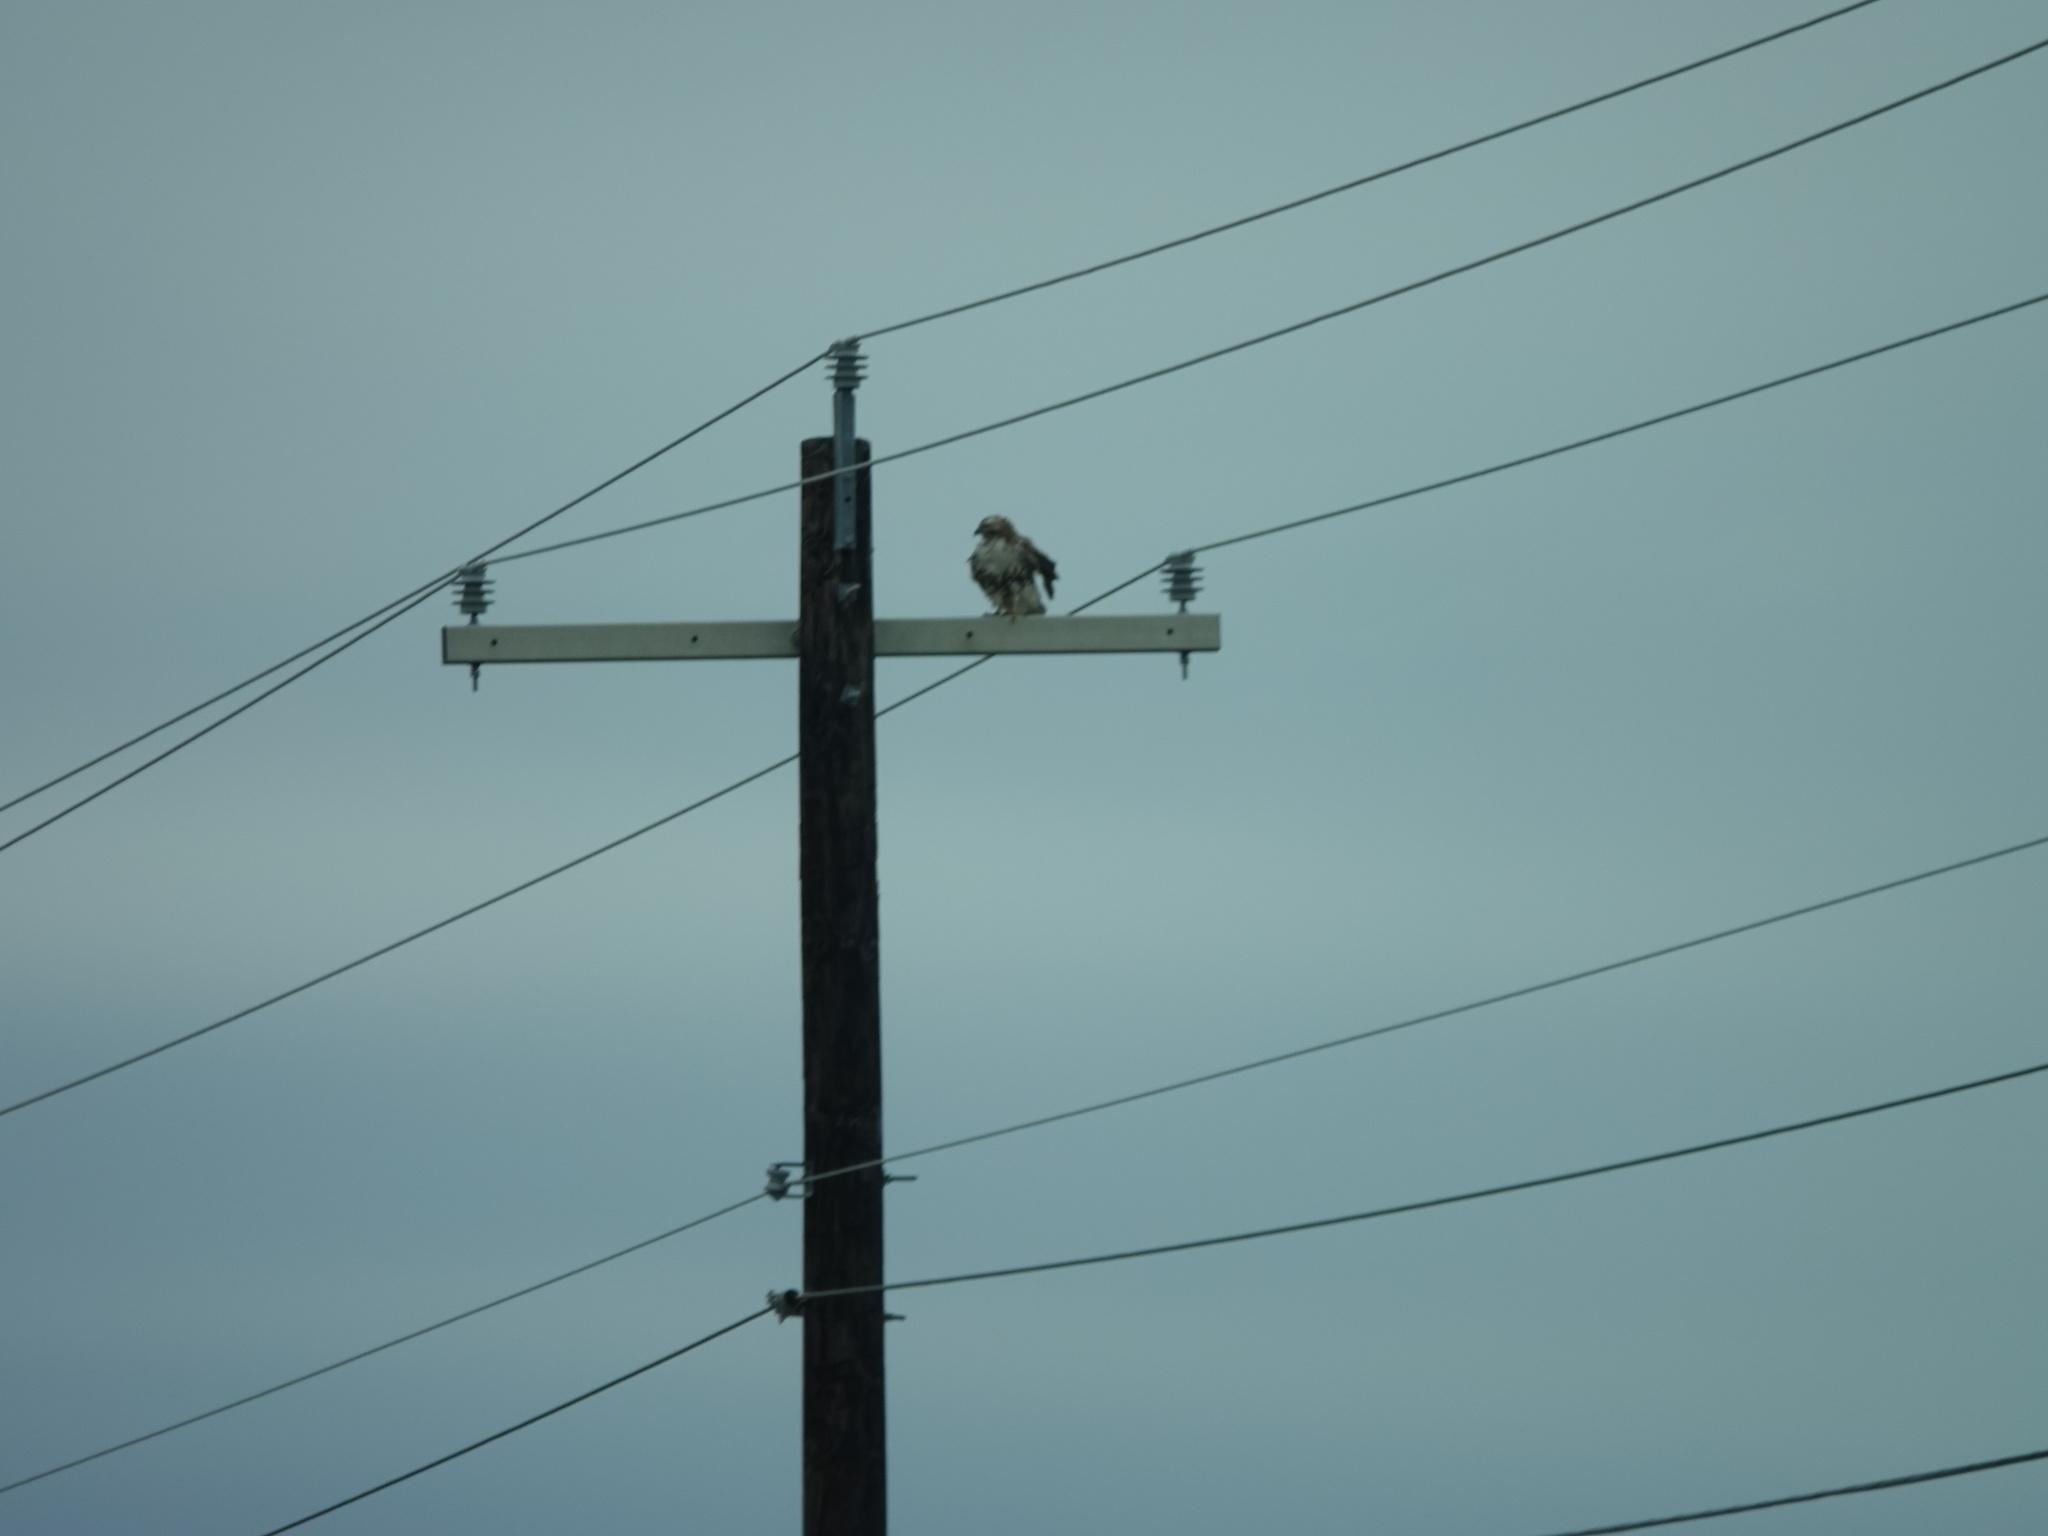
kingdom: Animalia
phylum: Chordata
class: Aves
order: Accipitriformes
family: Accipitridae
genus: Buteo
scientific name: Buteo jamaicensis
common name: Red-tailed hawk
